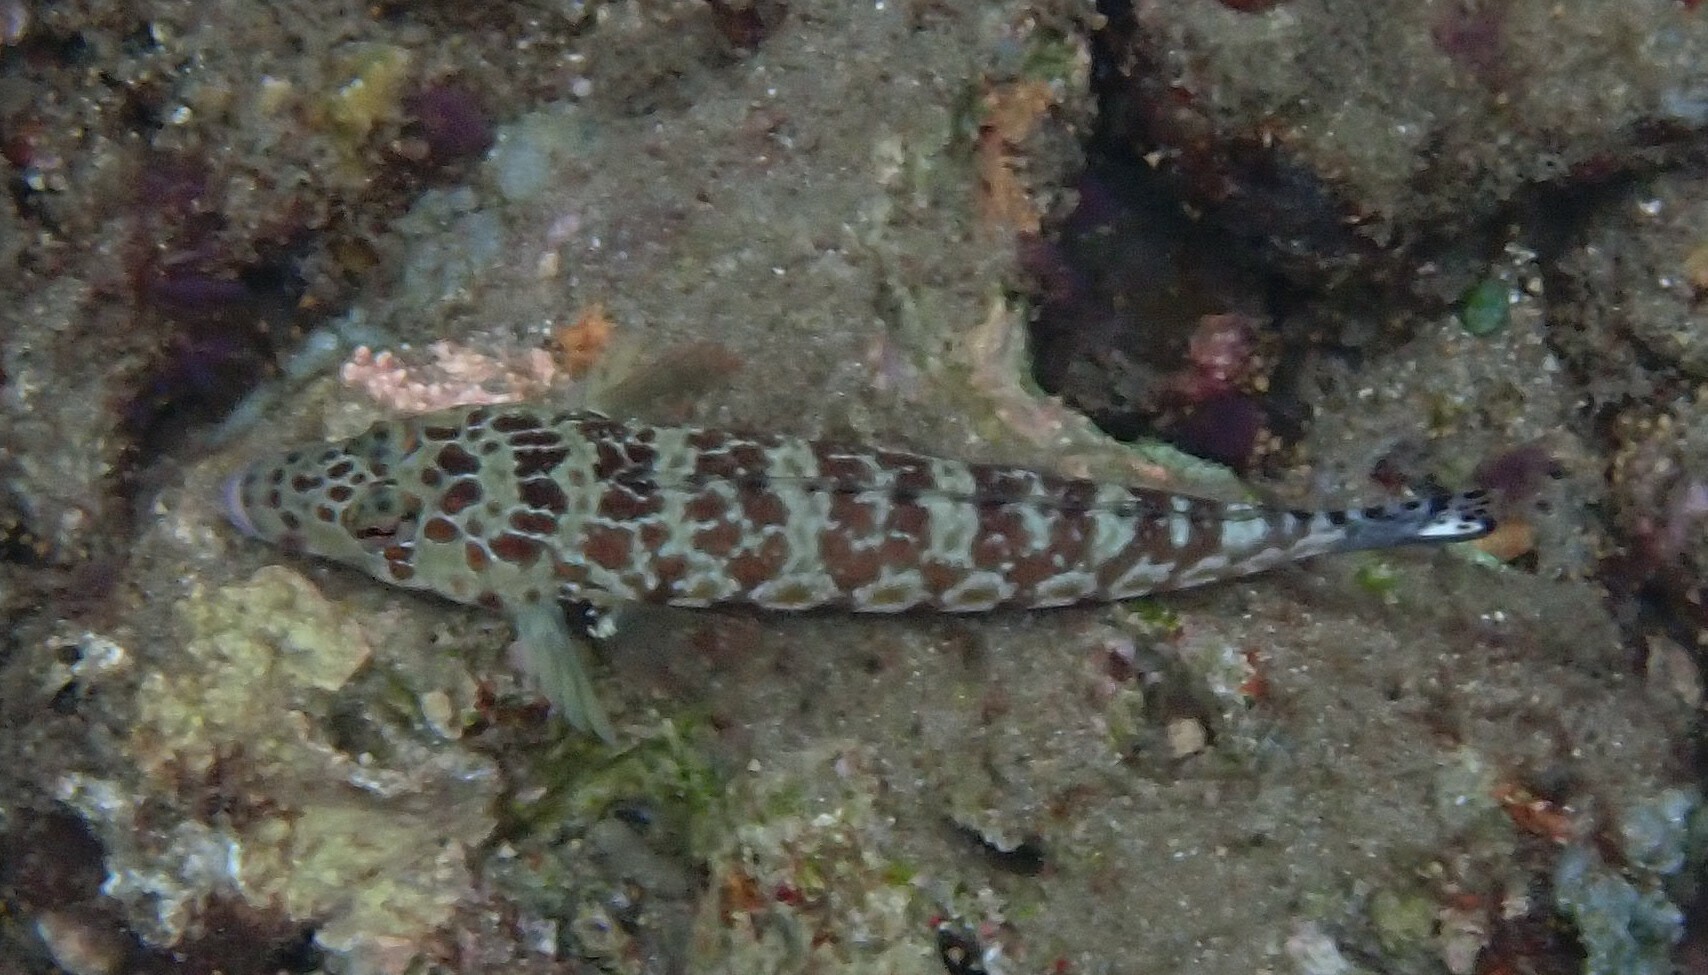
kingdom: Animalia
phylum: Chordata
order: Perciformes
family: Pinguipedidae
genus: Parapercis
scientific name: Parapercis millepunctata
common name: Black-dotted sandperch
